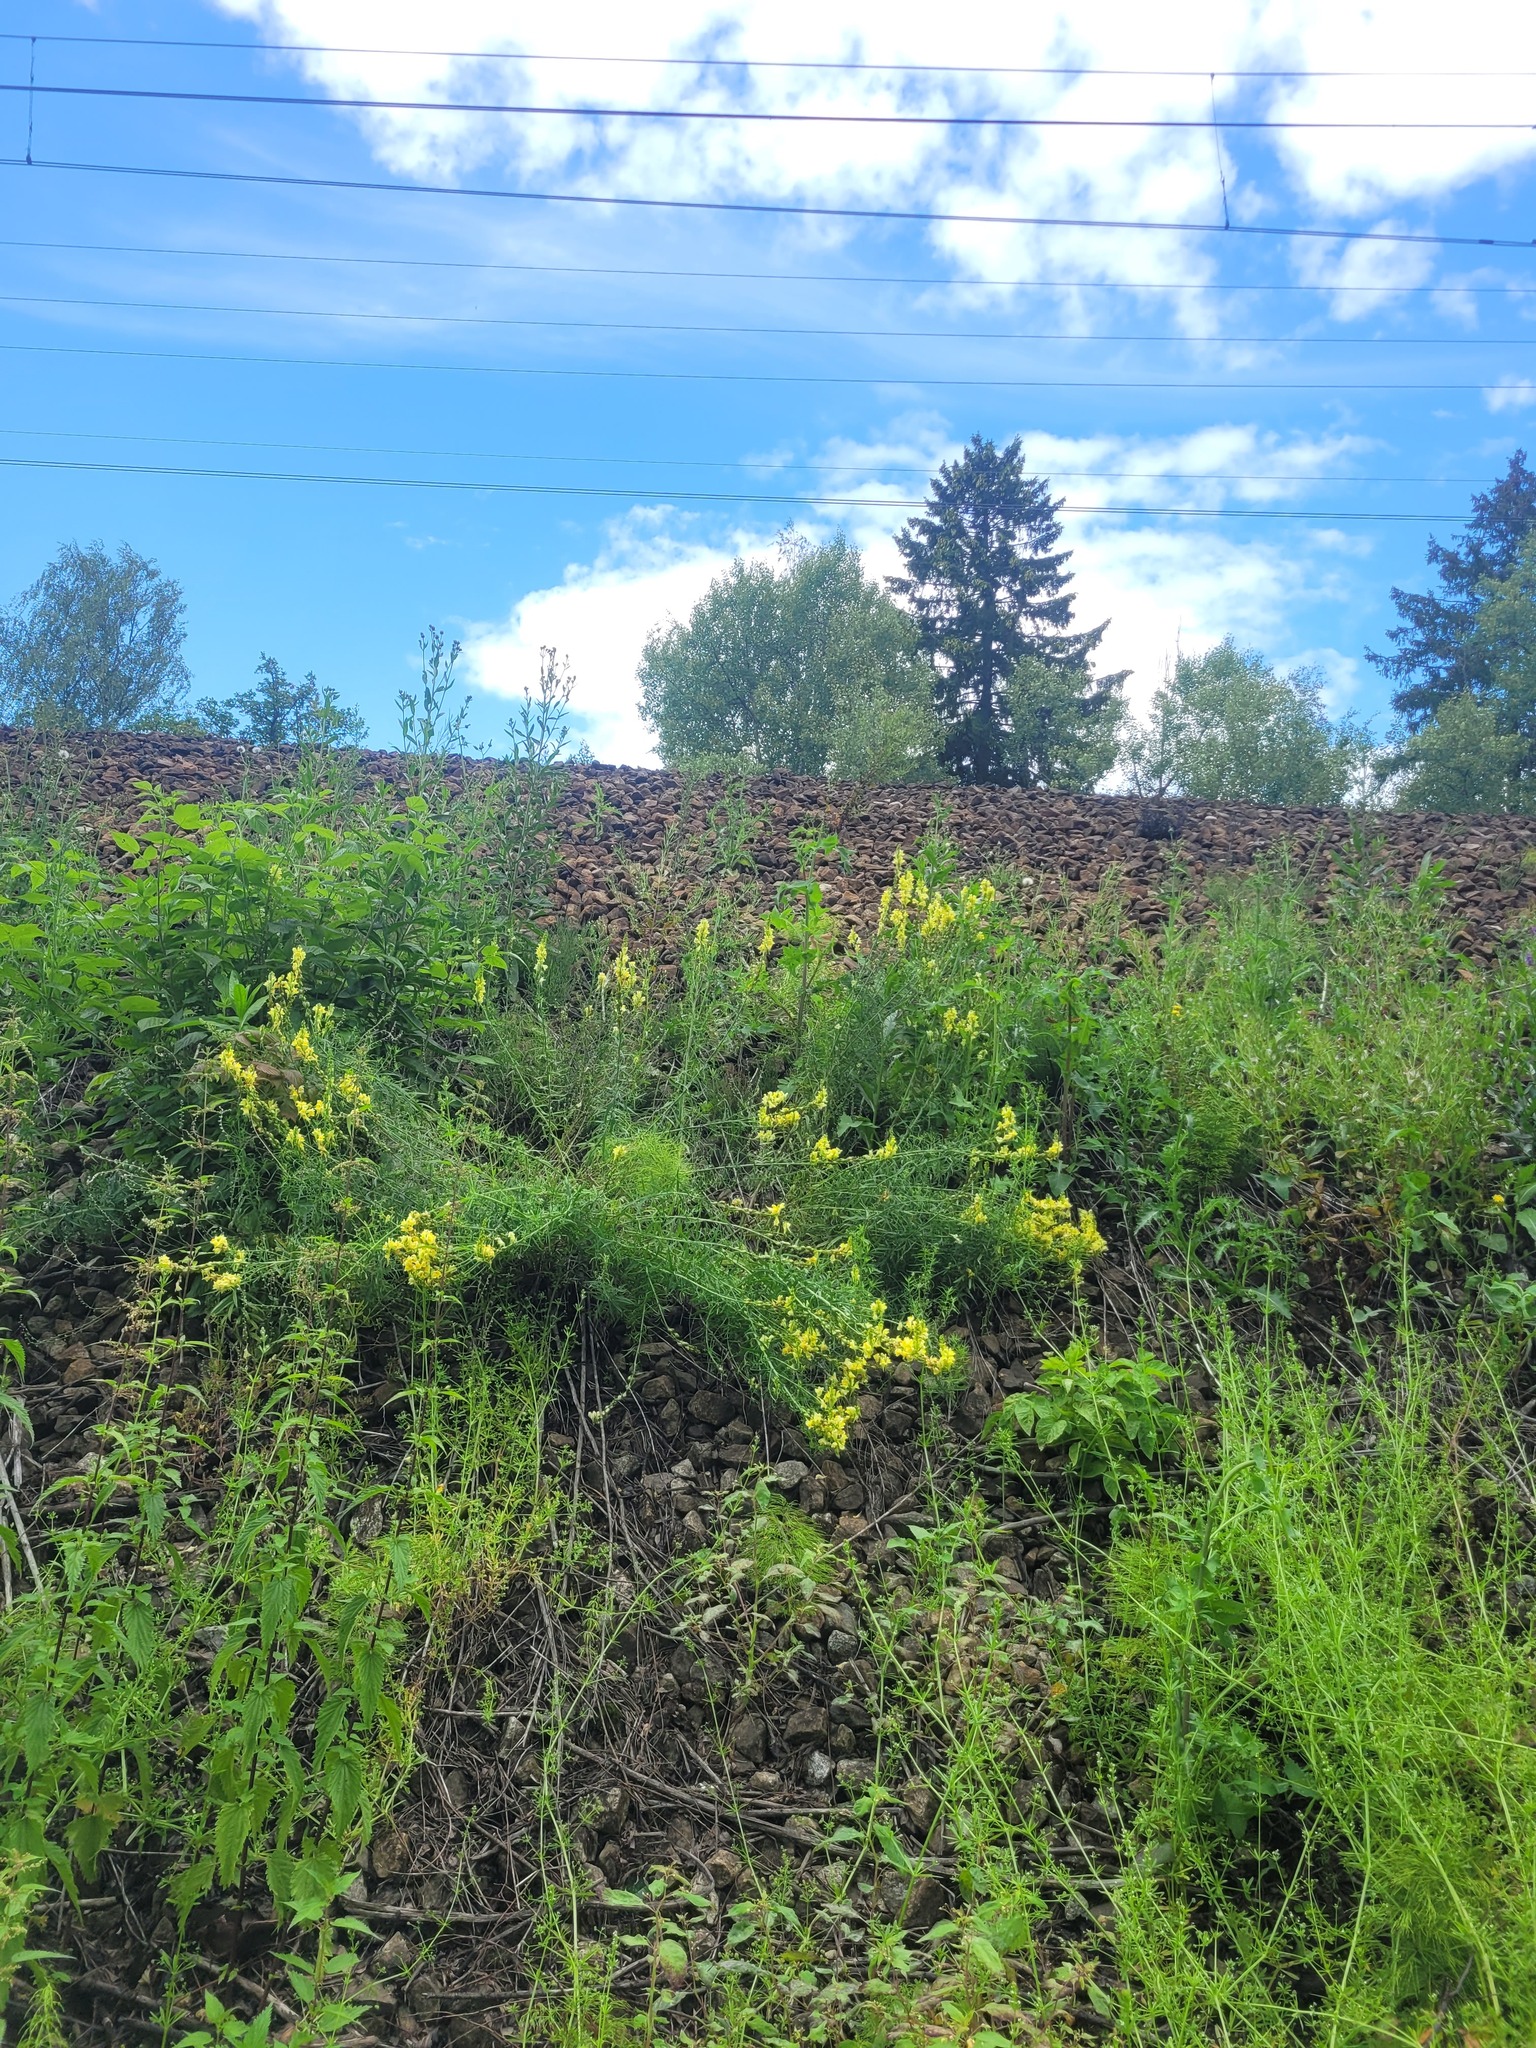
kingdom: Plantae
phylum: Tracheophyta
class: Magnoliopsida
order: Lamiales
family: Plantaginaceae
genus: Linaria
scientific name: Linaria vulgaris
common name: Butter and eggs
